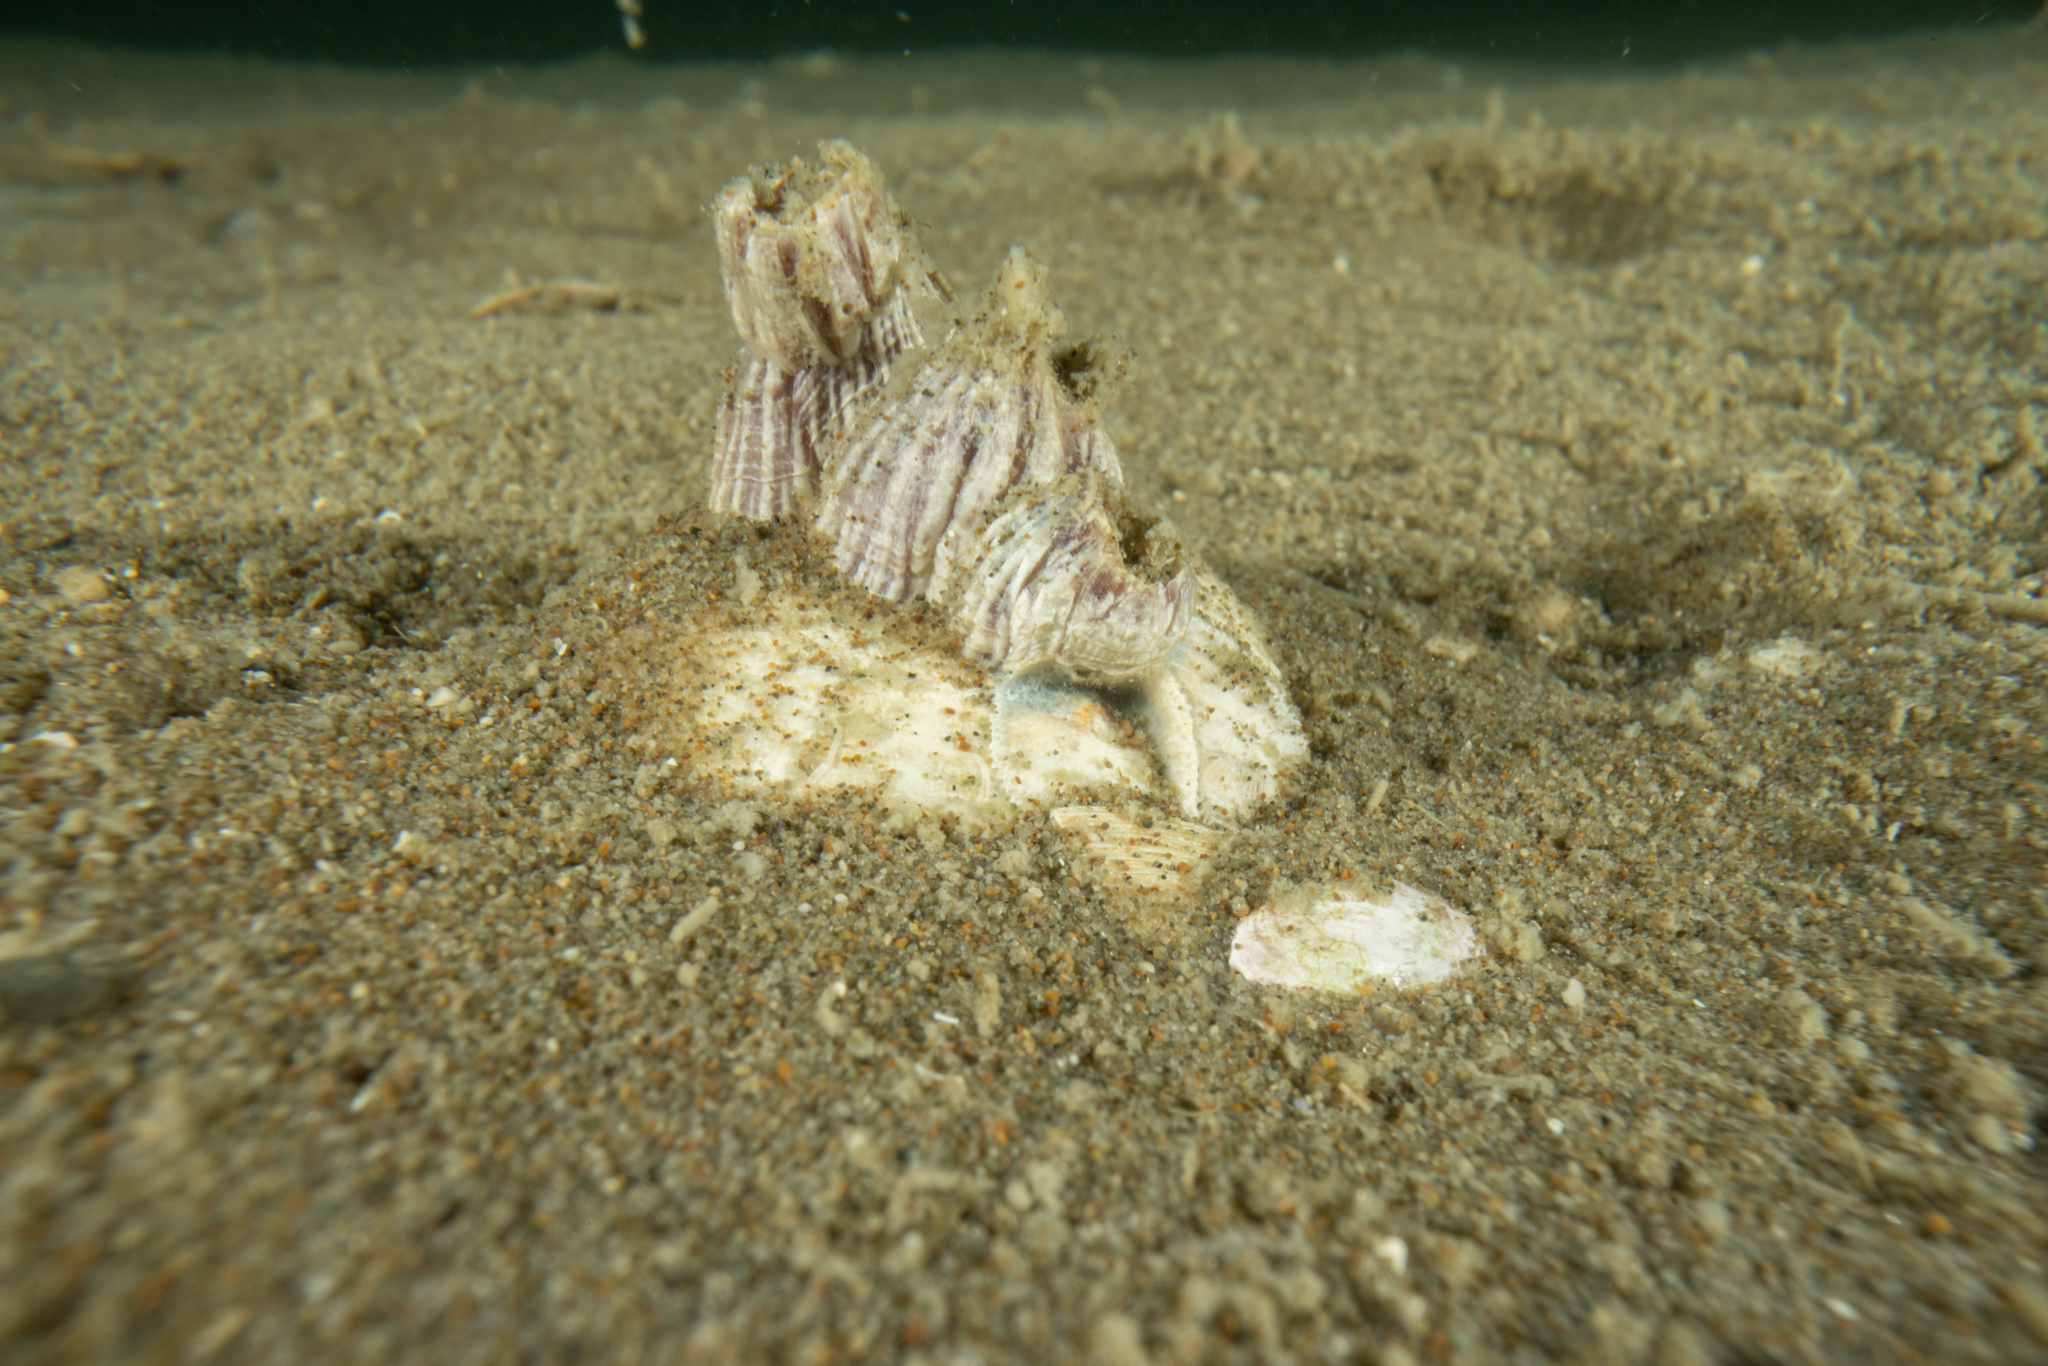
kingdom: Animalia
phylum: Arthropoda
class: Maxillopoda
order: Sessilia
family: Balanidae
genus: Balanus
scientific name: Balanus trigonus
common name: Triangle barnacle
